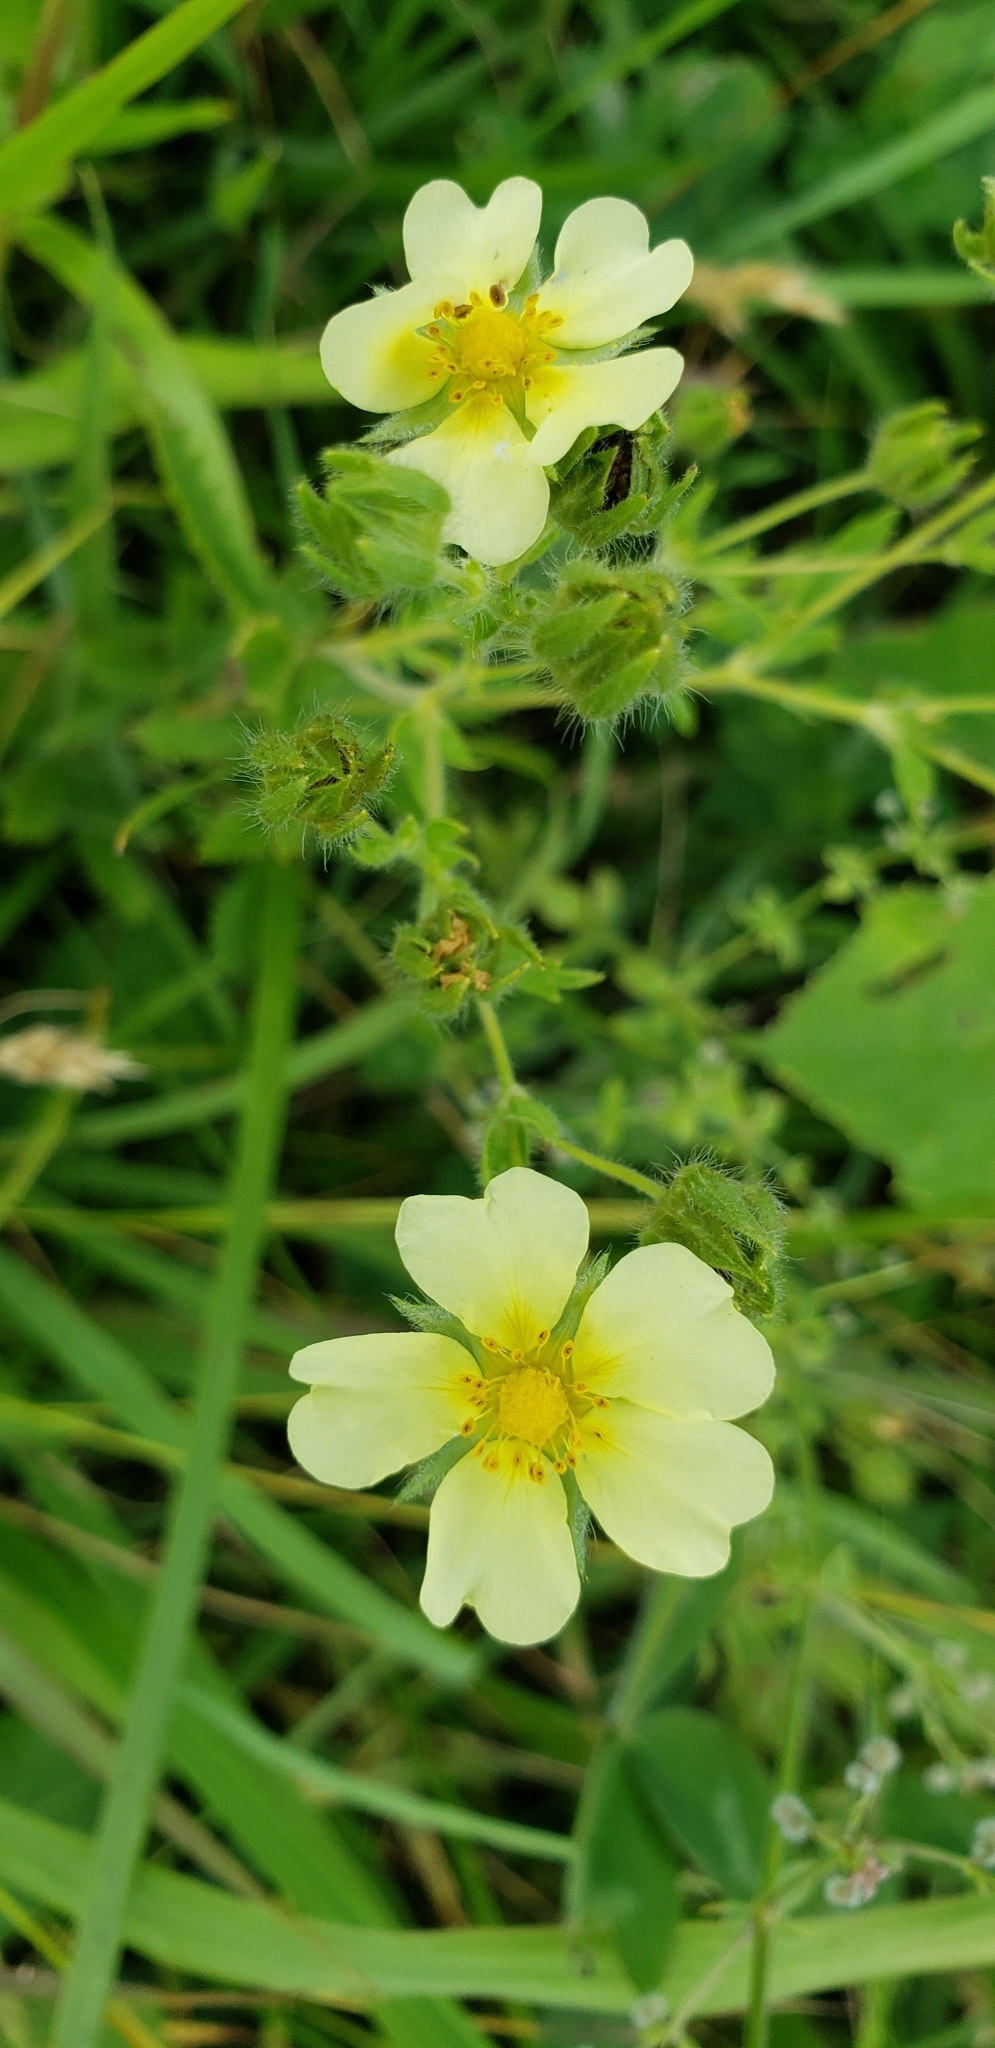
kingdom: Plantae
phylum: Tracheophyta
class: Magnoliopsida
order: Rosales
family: Rosaceae
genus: Potentilla
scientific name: Potentilla recta
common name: Sulphur cinquefoil
